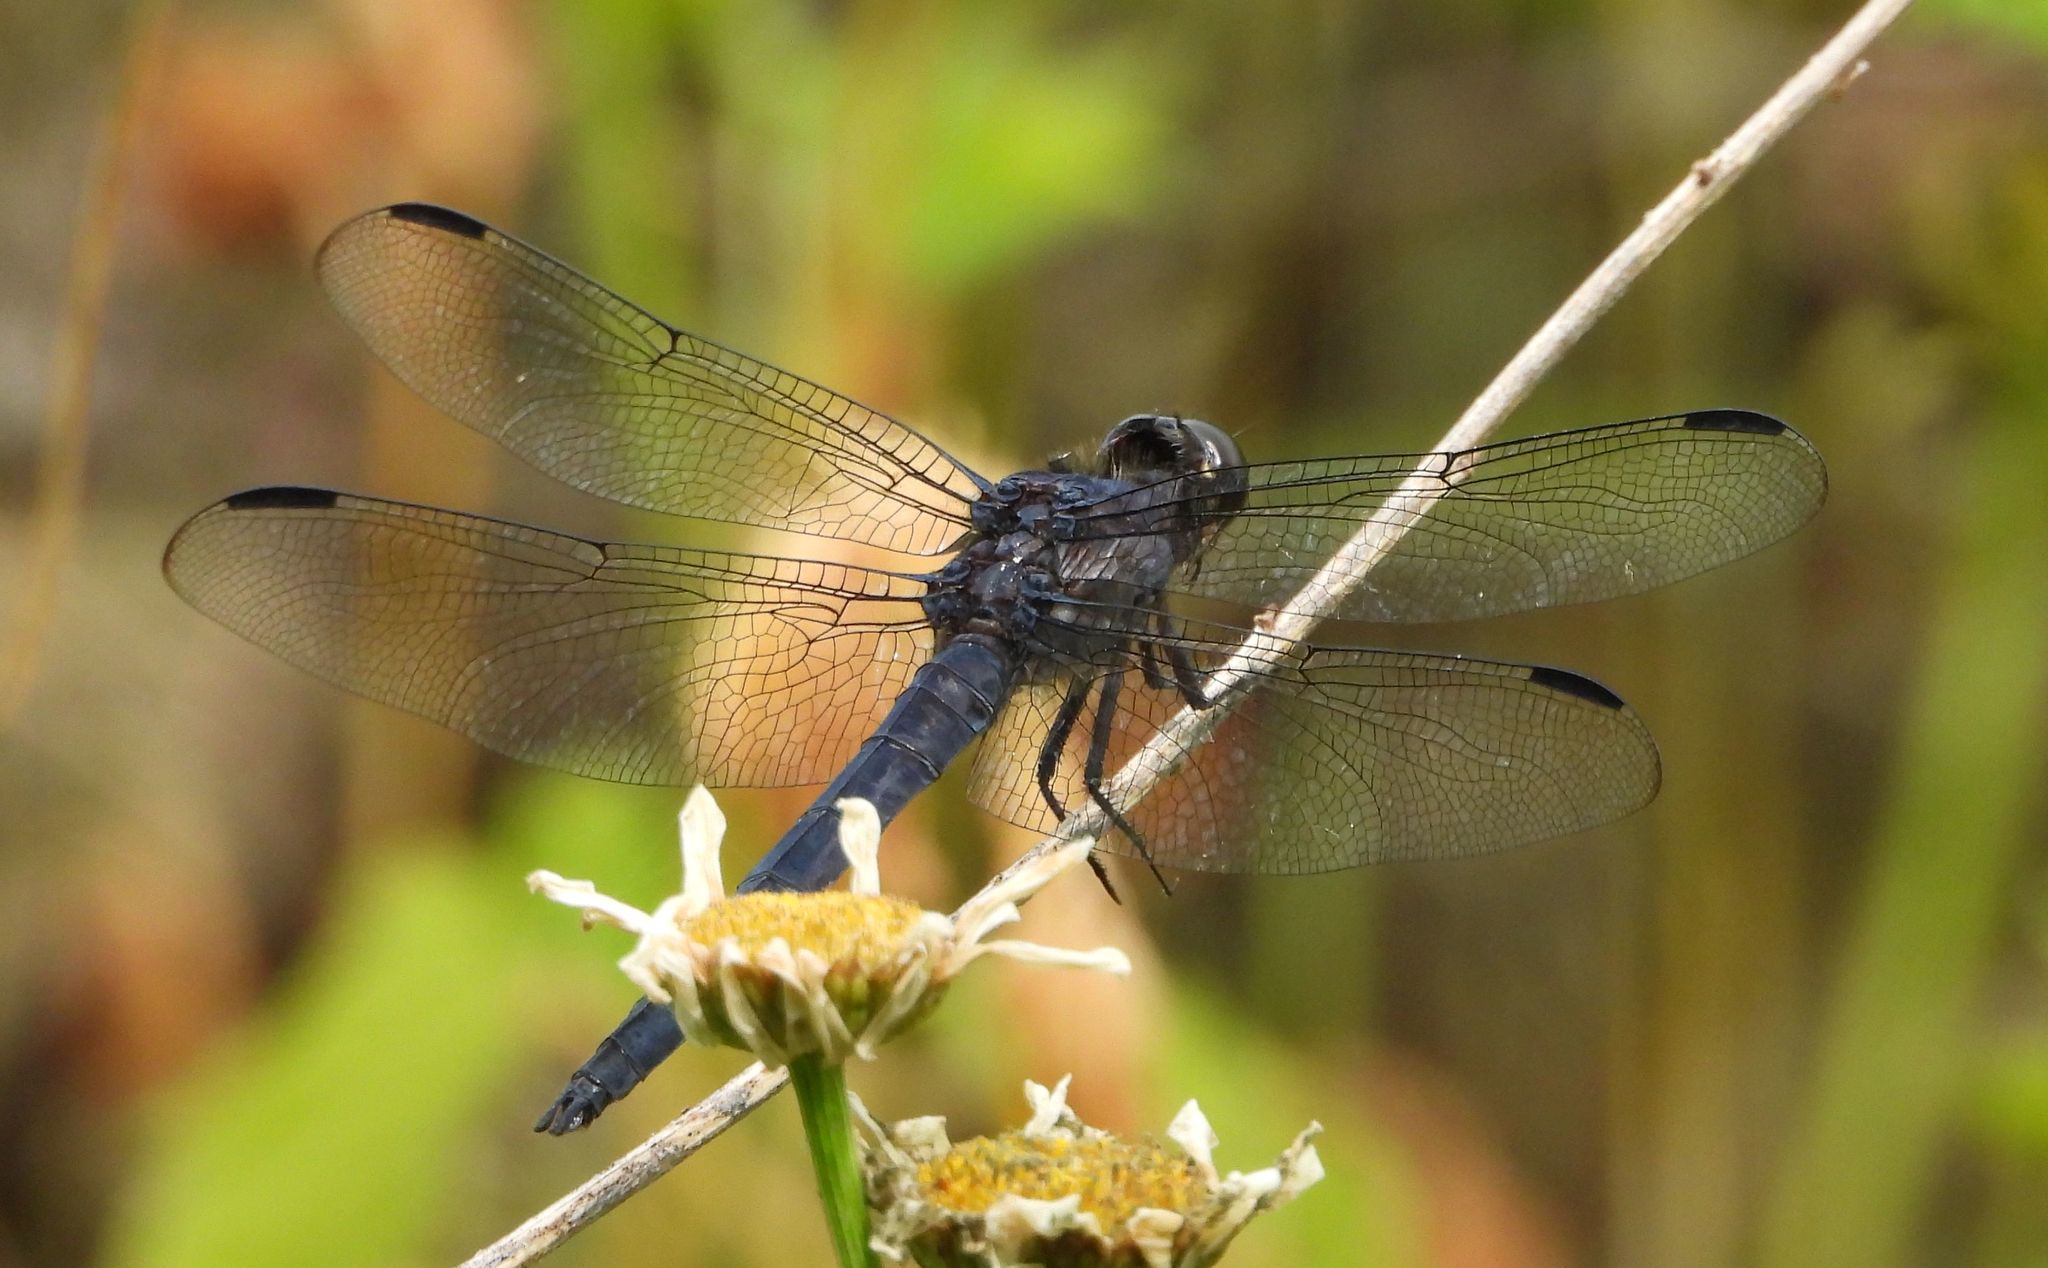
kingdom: Animalia
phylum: Arthropoda
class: Insecta
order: Odonata
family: Libellulidae
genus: Libellula
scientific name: Libellula incesta
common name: Slaty skimmer
